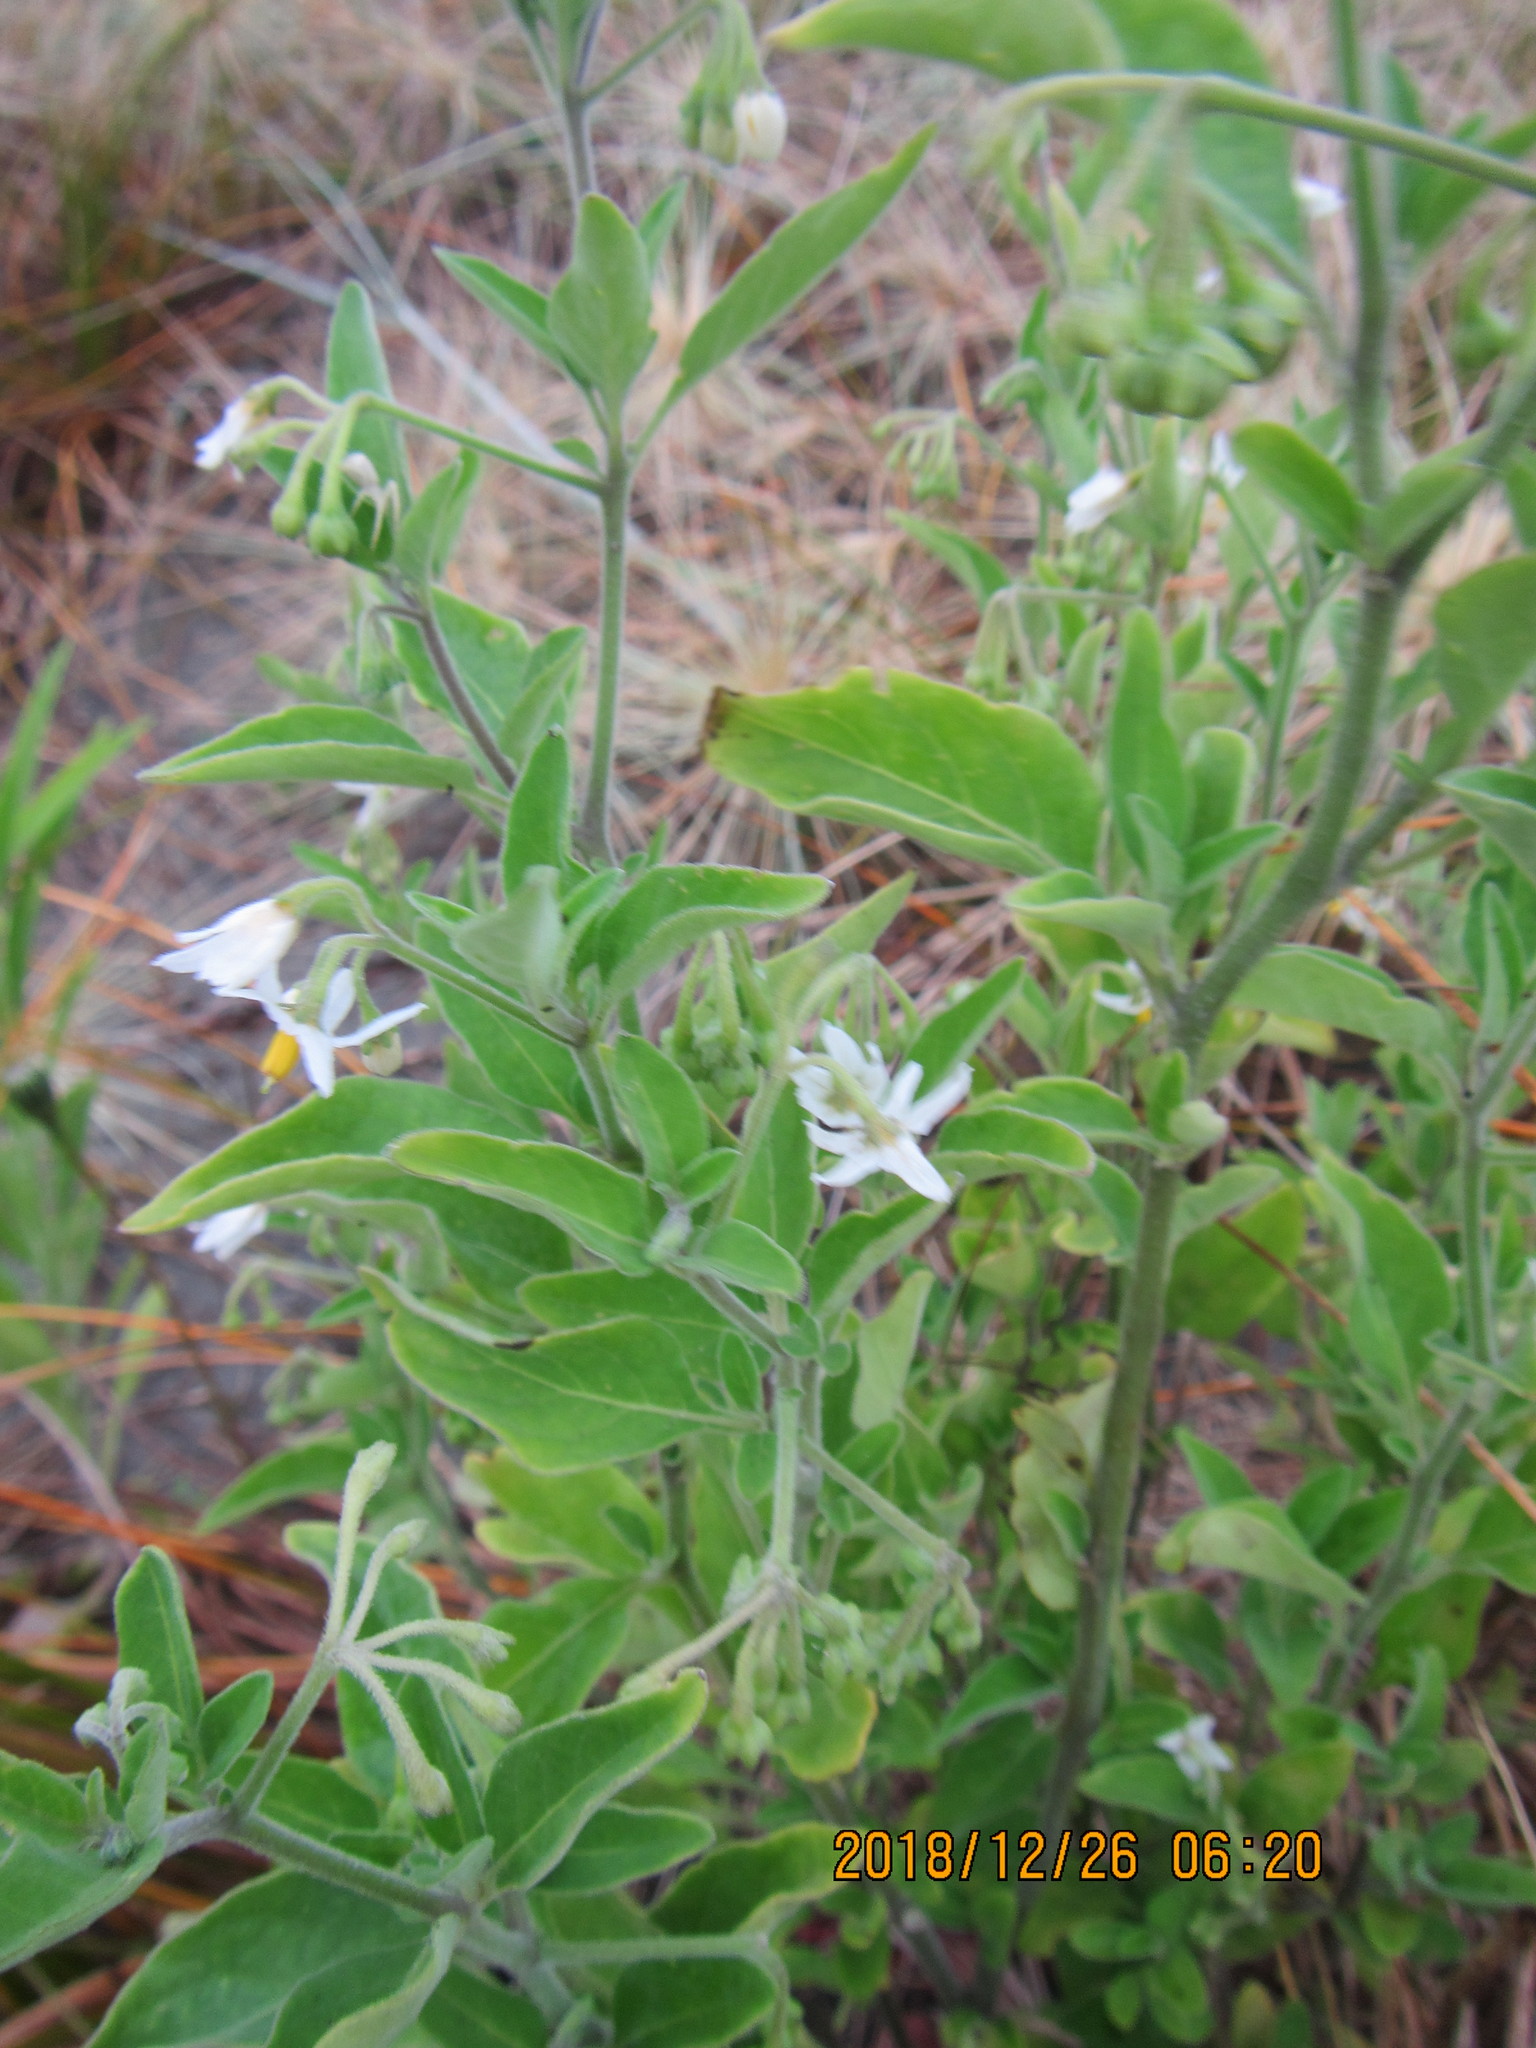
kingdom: Plantae
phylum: Tracheophyta
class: Magnoliopsida
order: Solanales
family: Solanaceae
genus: Solanum
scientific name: Solanum chenopodioides
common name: Tall nightshade
